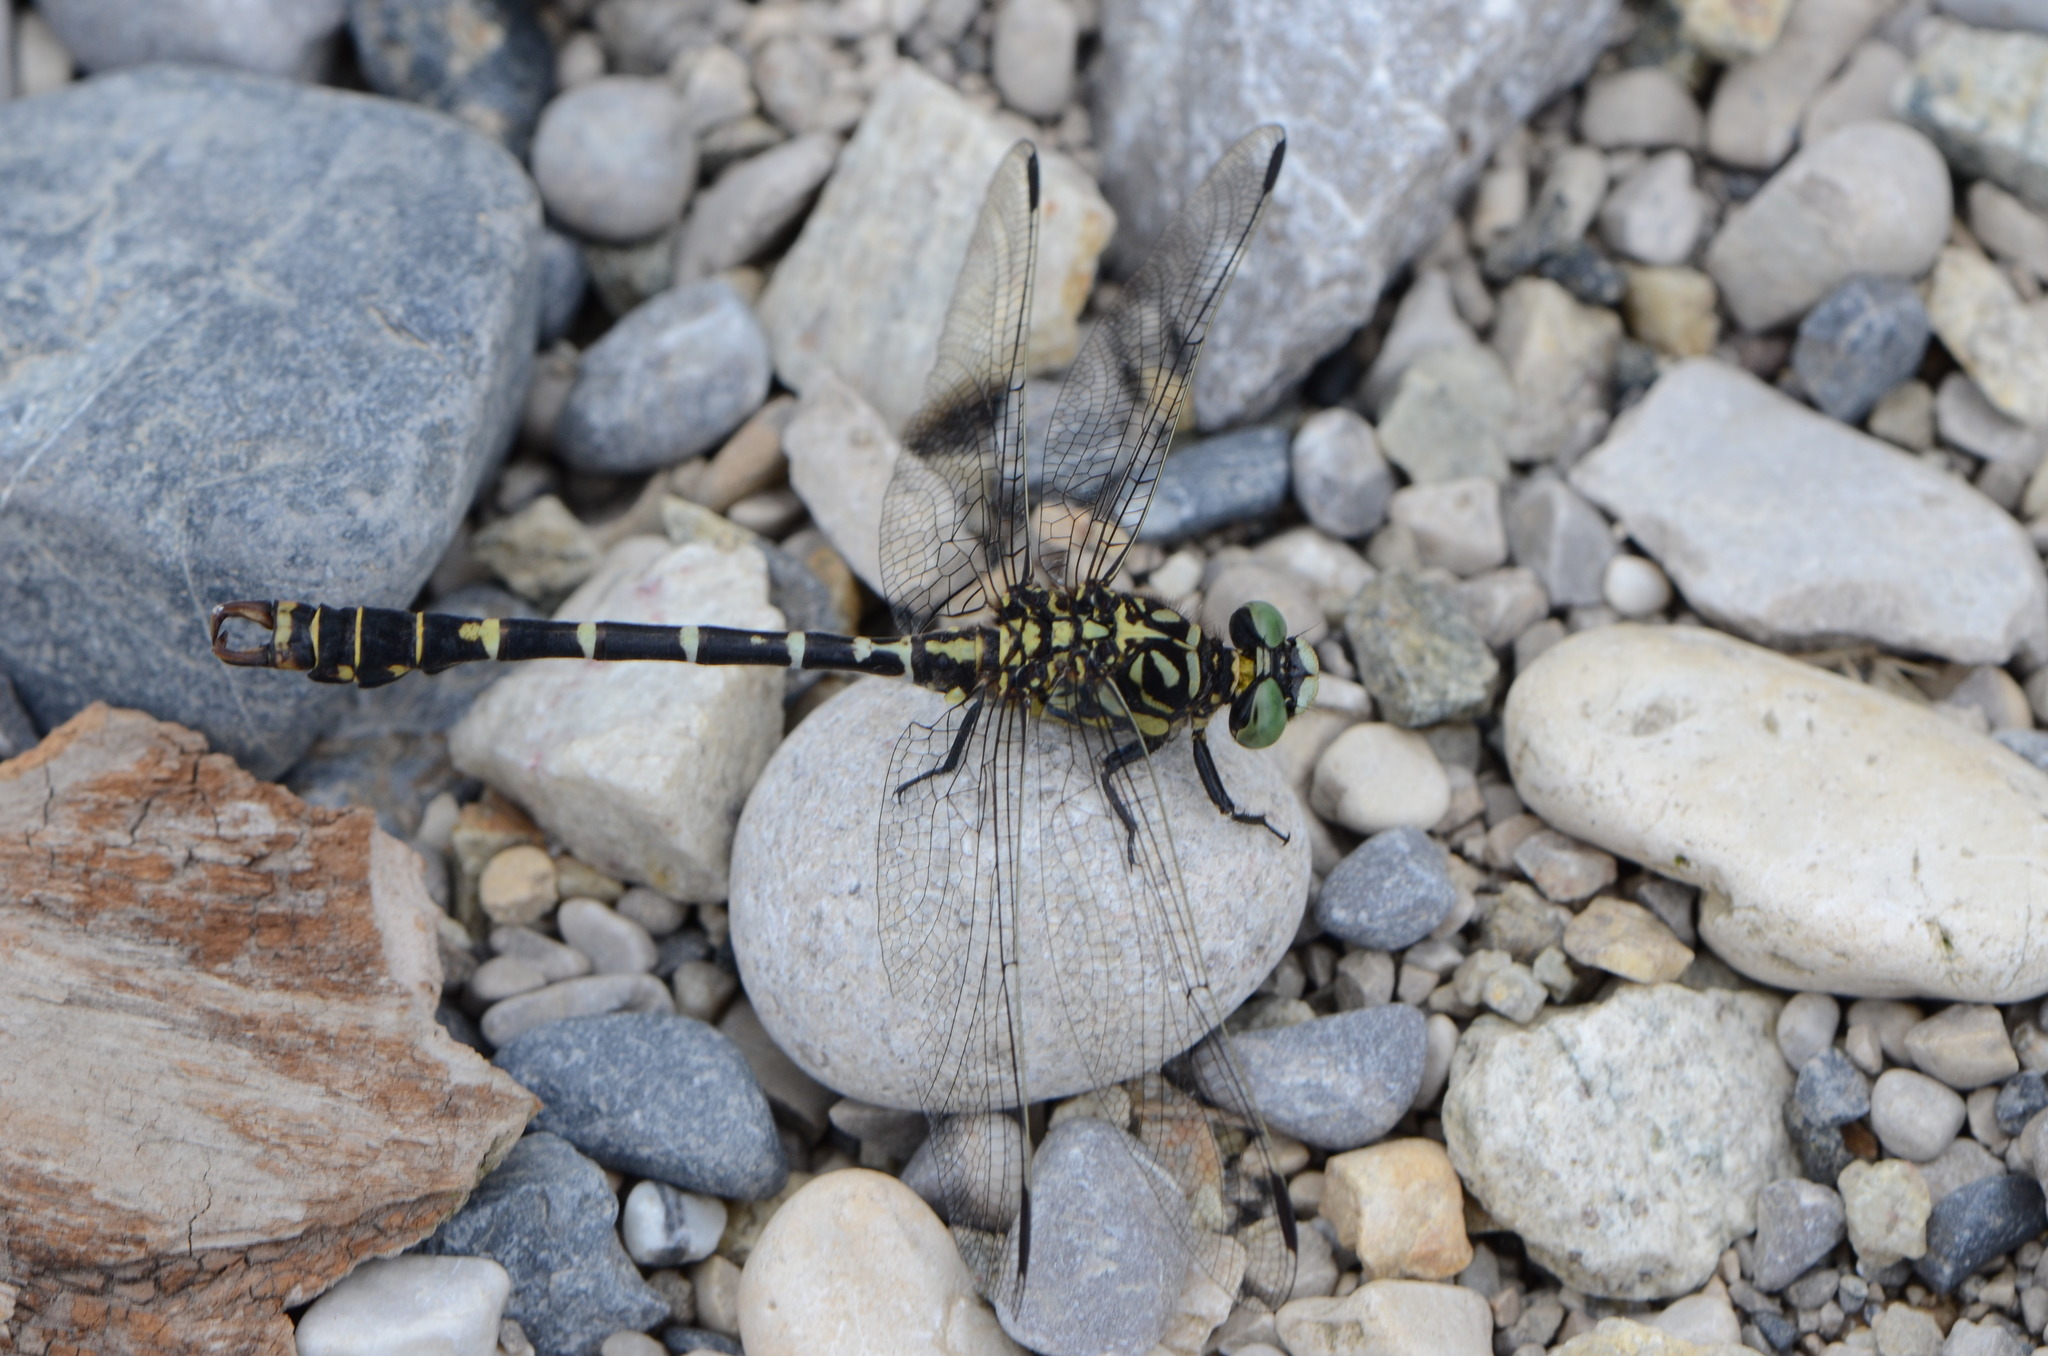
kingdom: Animalia
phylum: Arthropoda
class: Insecta
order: Odonata
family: Gomphidae
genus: Onychogomphus
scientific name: Onychogomphus forcipatus
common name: Small pincertail
